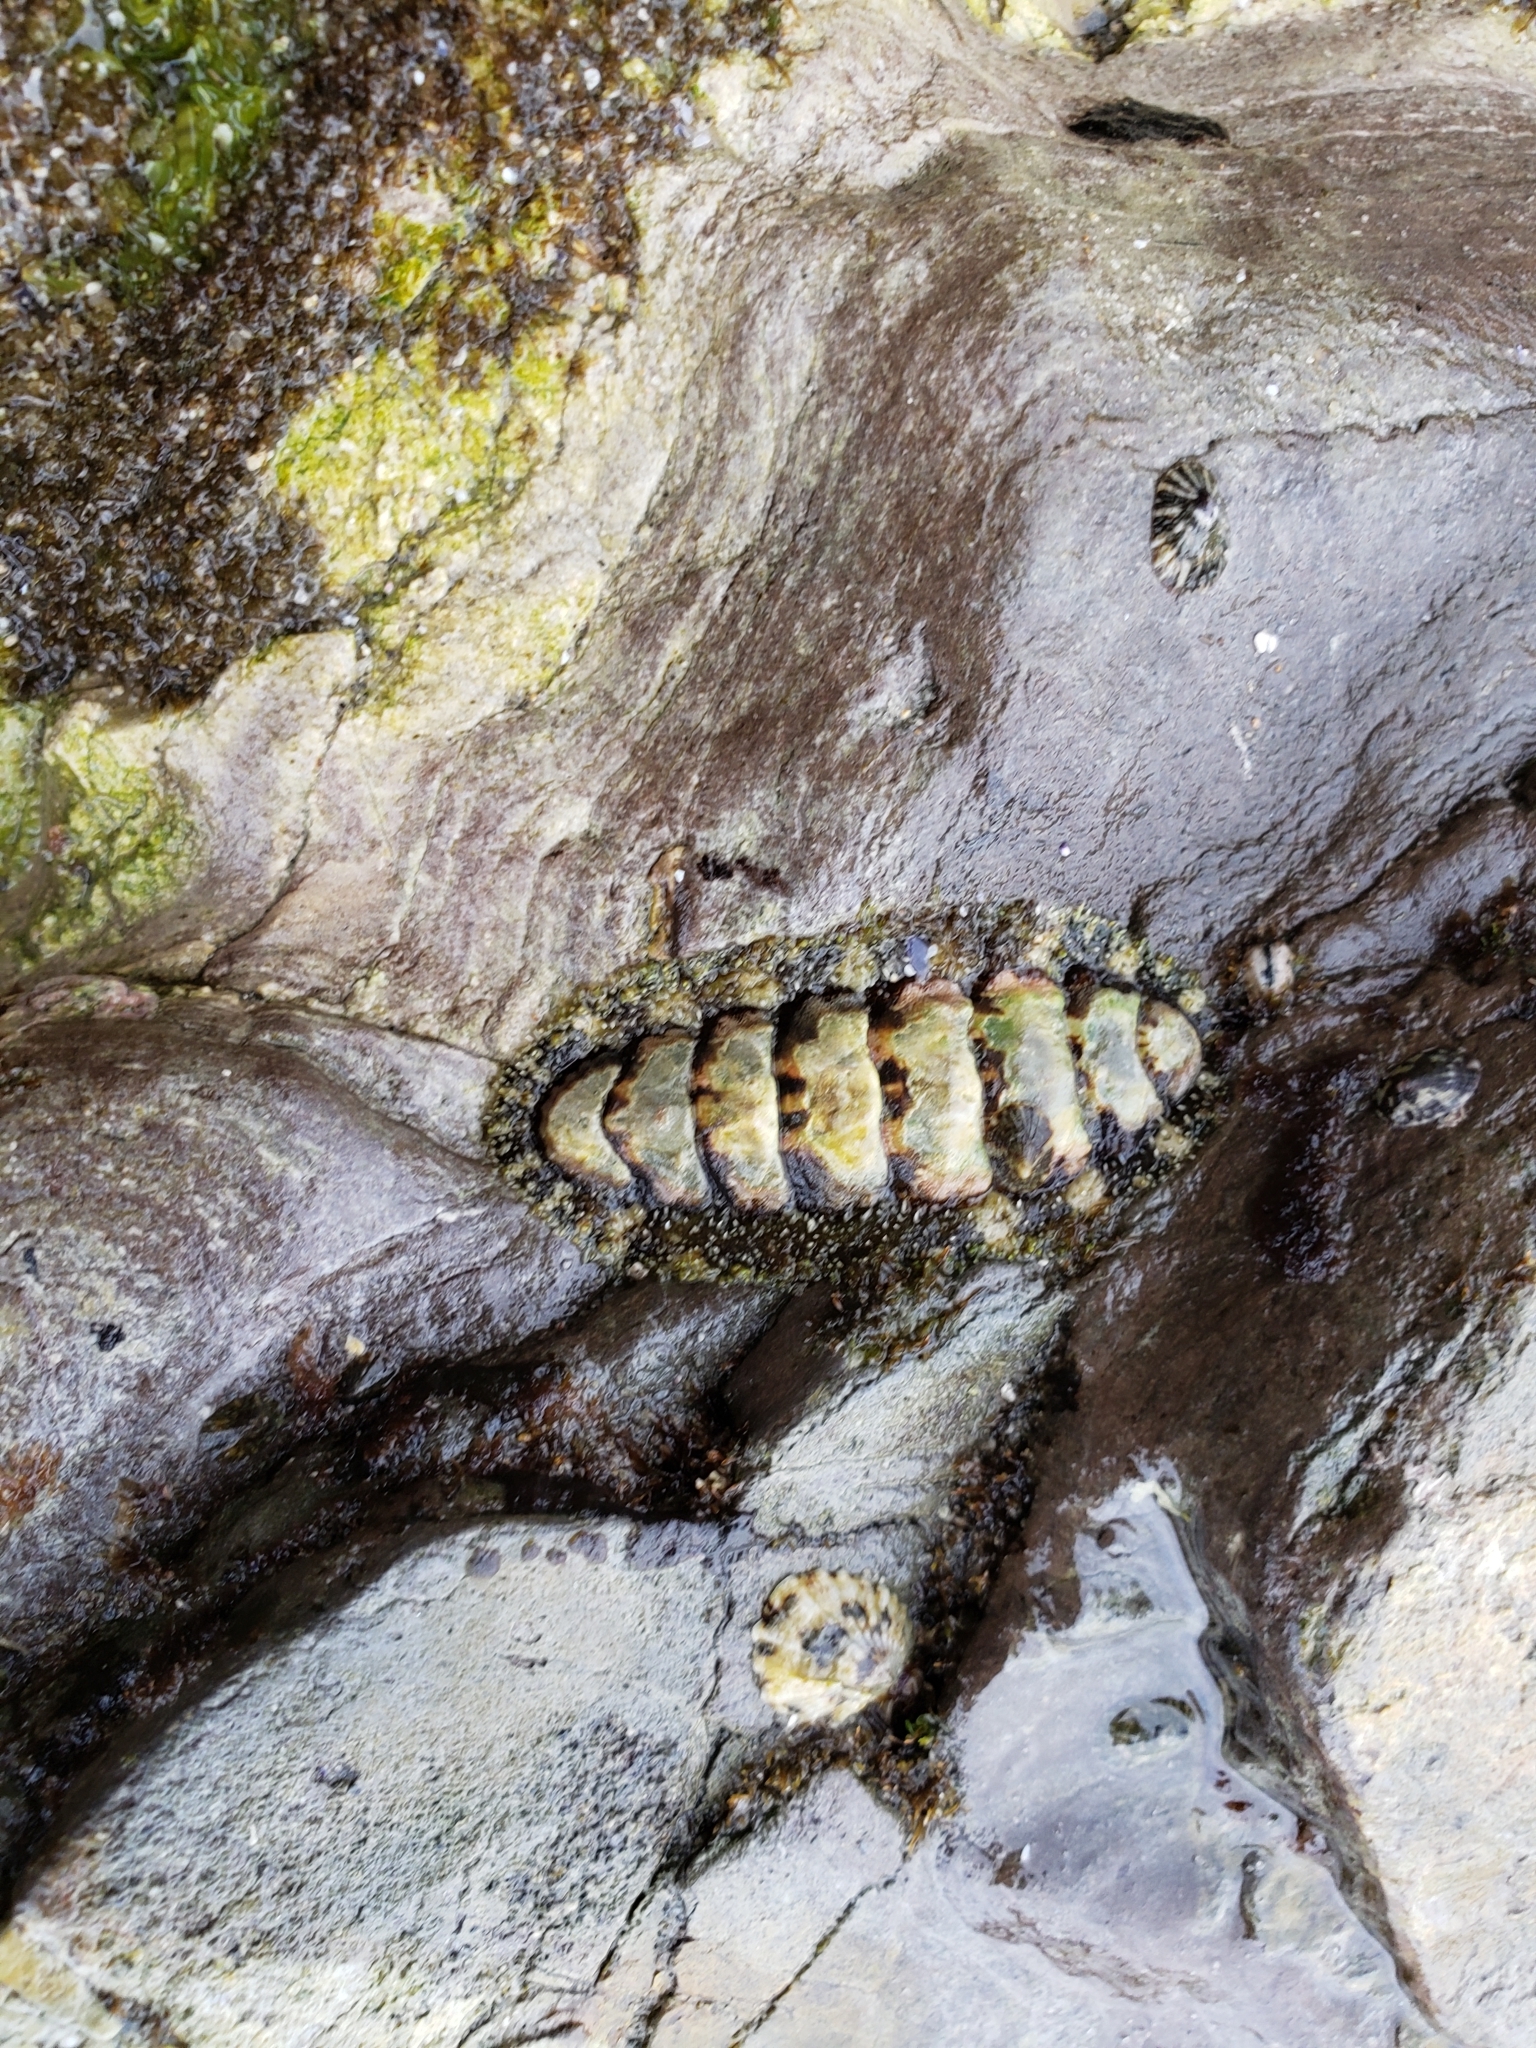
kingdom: Animalia
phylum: Mollusca
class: Polyplacophora
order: Chitonida
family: Tonicellidae
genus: Nuttallina
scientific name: Nuttallina californica
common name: California nuttall chiton
